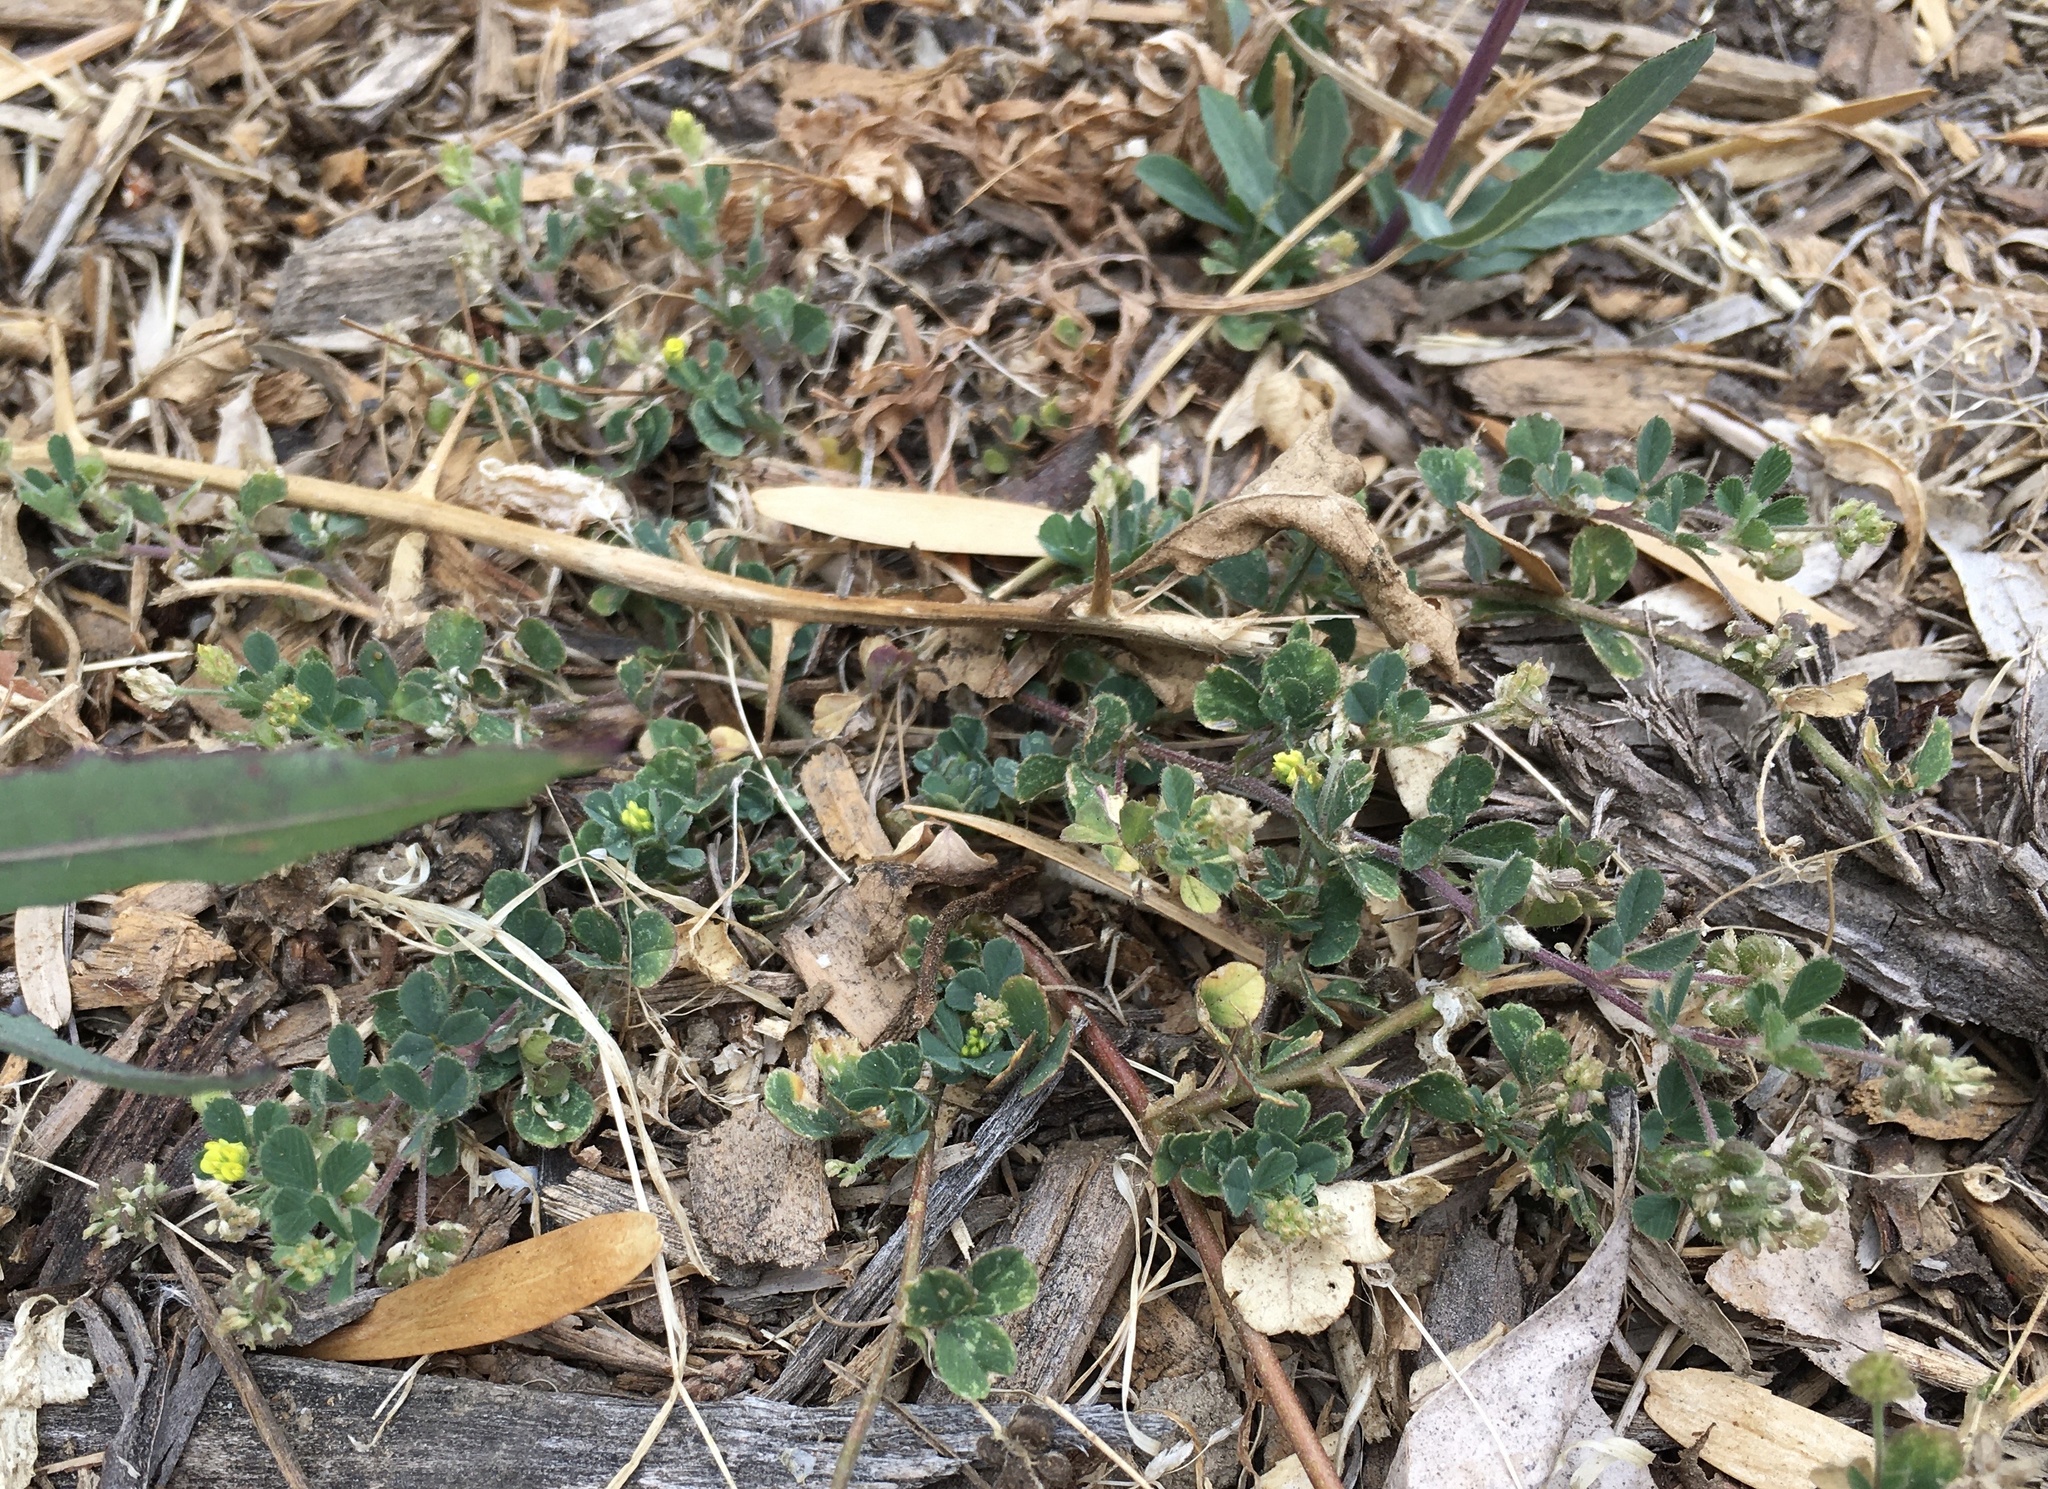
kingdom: Plantae
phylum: Tracheophyta
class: Magnoliopsida
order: Fabales
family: Fabaceae
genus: Medicago
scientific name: Medicago lupulina
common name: Black medick
